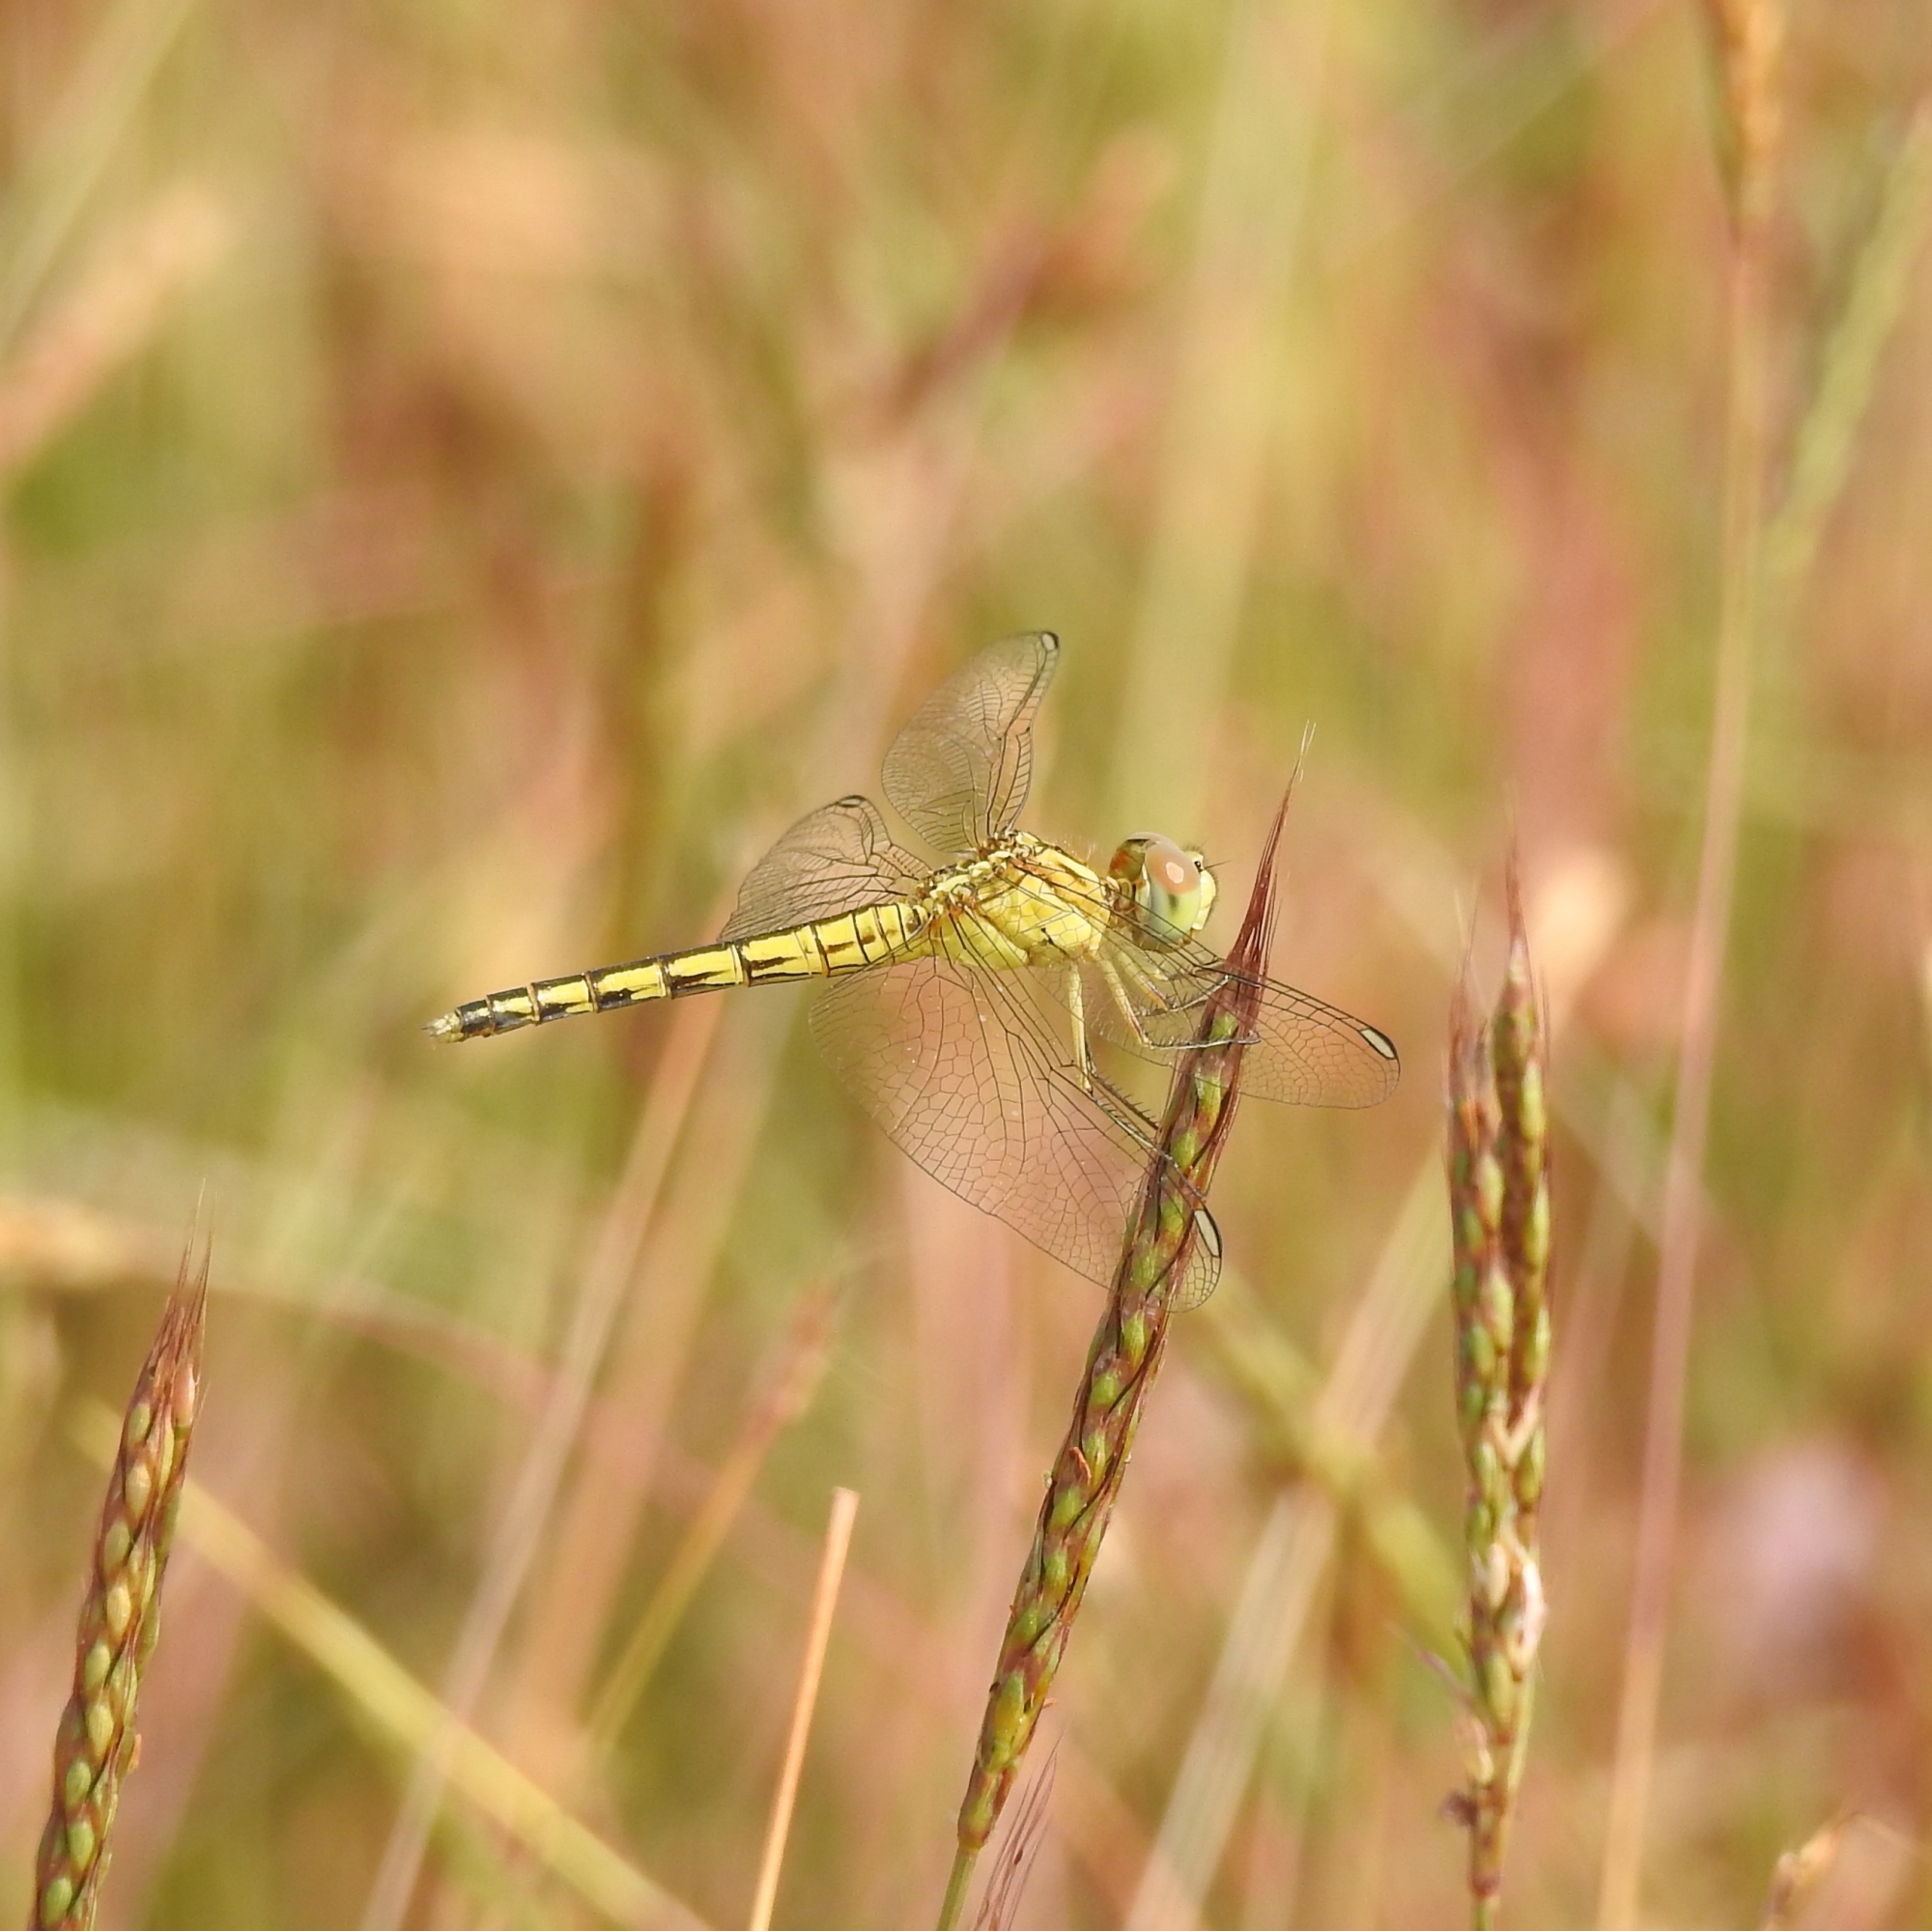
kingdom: Animalia
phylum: Arthropoda
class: Insecta
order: Odonata
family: Libellulidae
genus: Indothemis
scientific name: Indothemis carnatica
